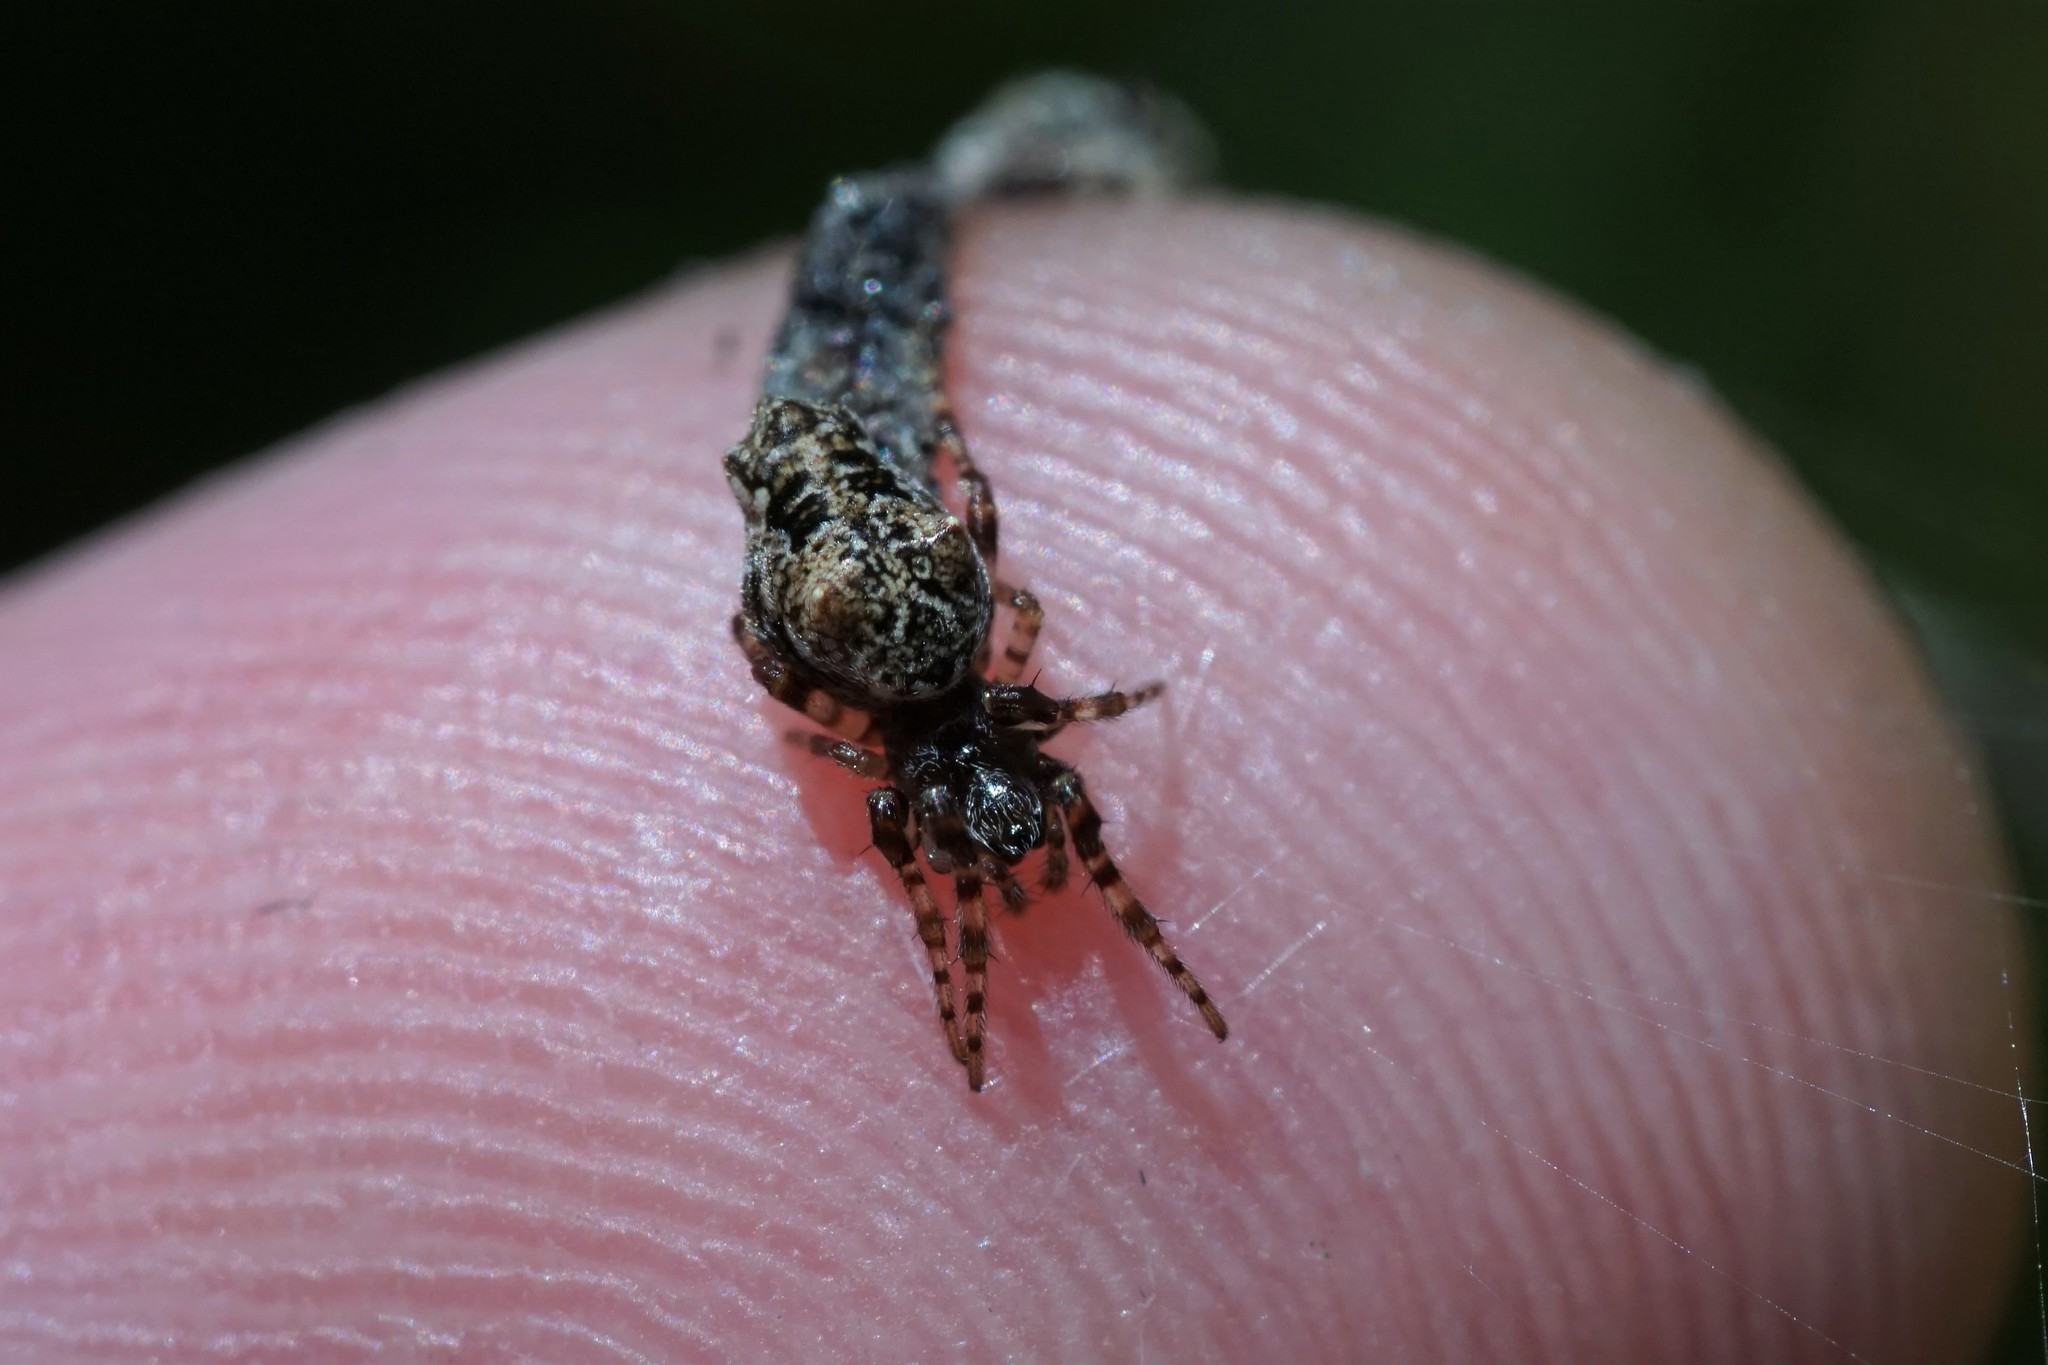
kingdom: Animalia
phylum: Arthropoda
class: Arachnida
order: Araneae
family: Araneidae
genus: Cyclosa
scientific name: Cyclosa walckenaeri
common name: Orb weavers
